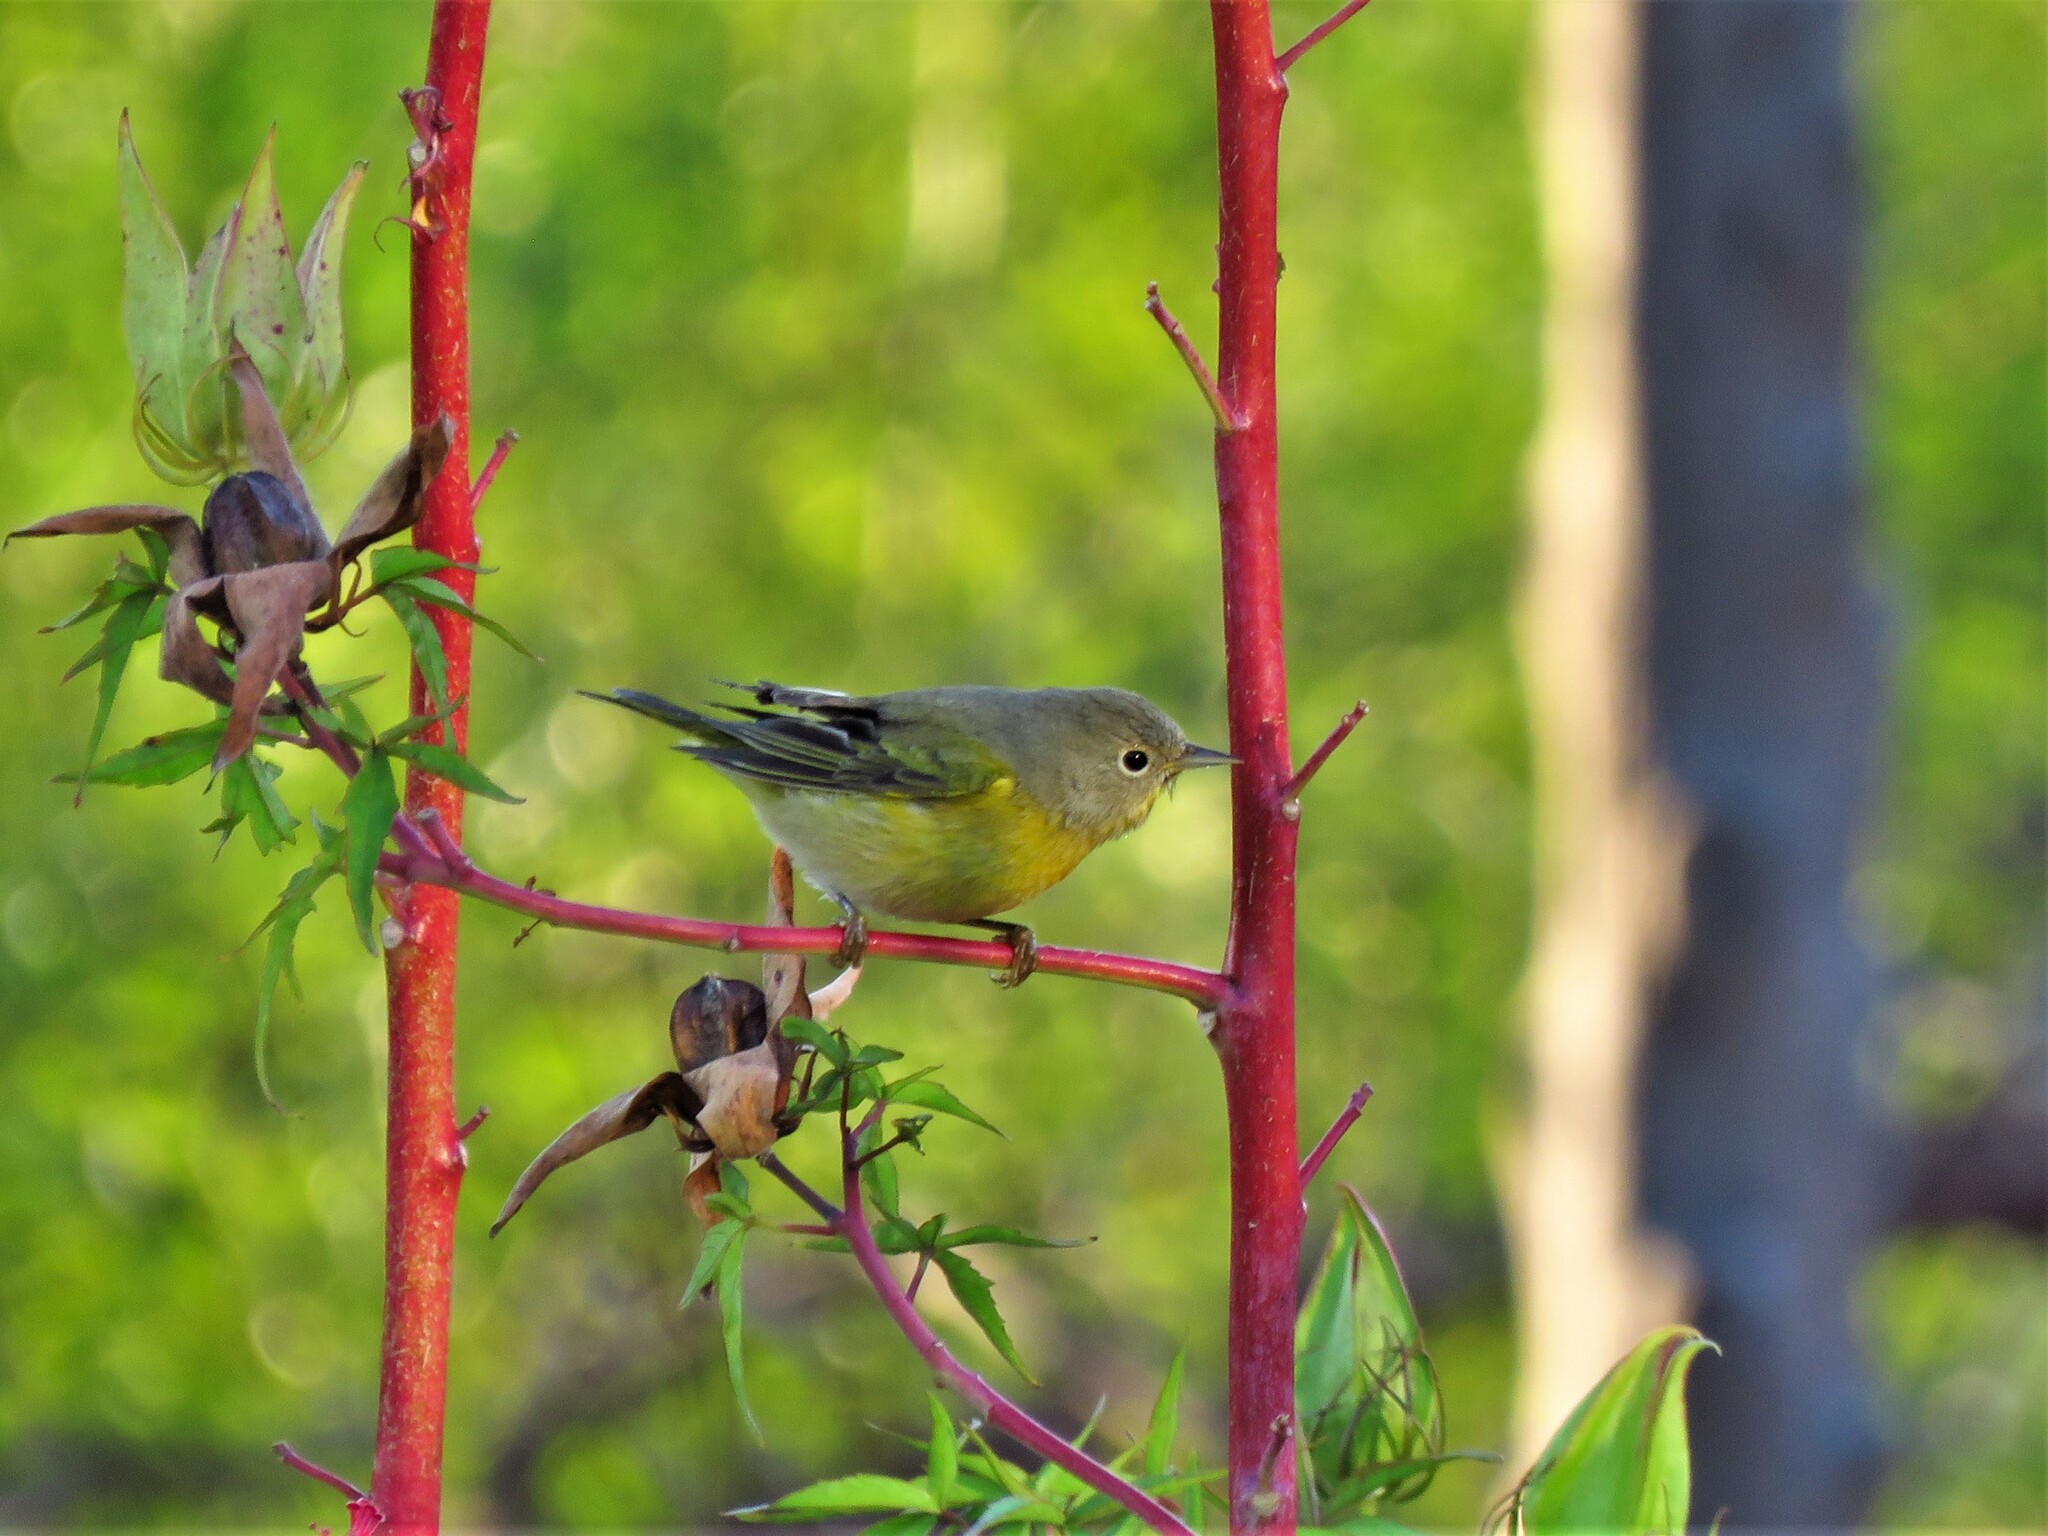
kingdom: Animalia
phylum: Chordata
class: Aves
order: Passeriformes
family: Parulidae
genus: Leiothlypis
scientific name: Leiothlypis ruficapilla
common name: Nashville warbler
